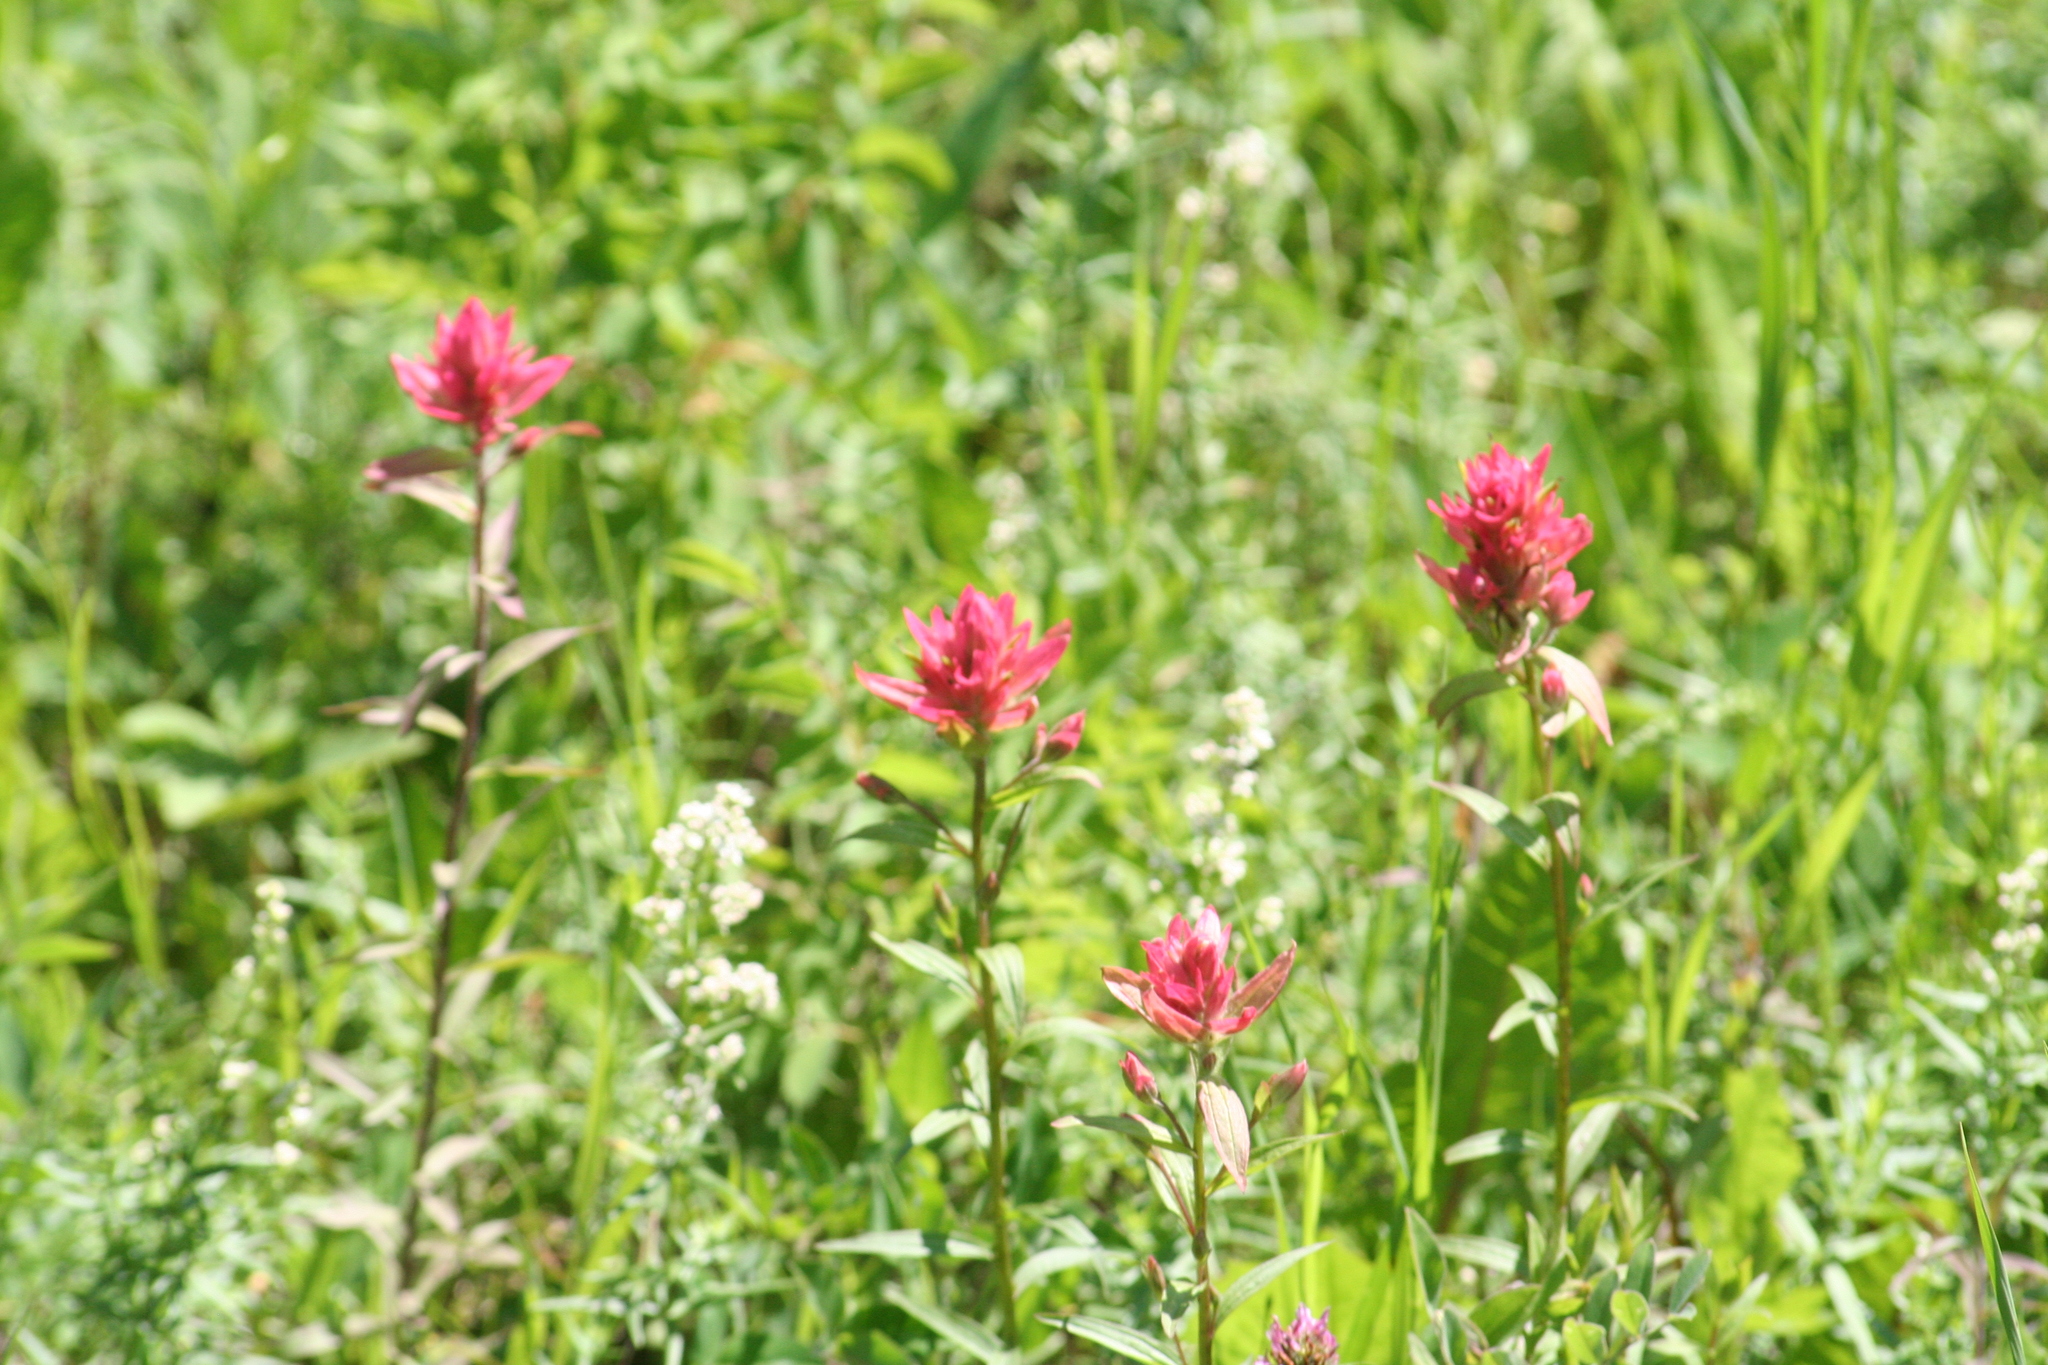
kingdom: Plantae
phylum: Tracheophyta
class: Magnoliopsida
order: Lamiales
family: Orobanchaceae
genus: Castilleja
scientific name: Castilleja miniata
